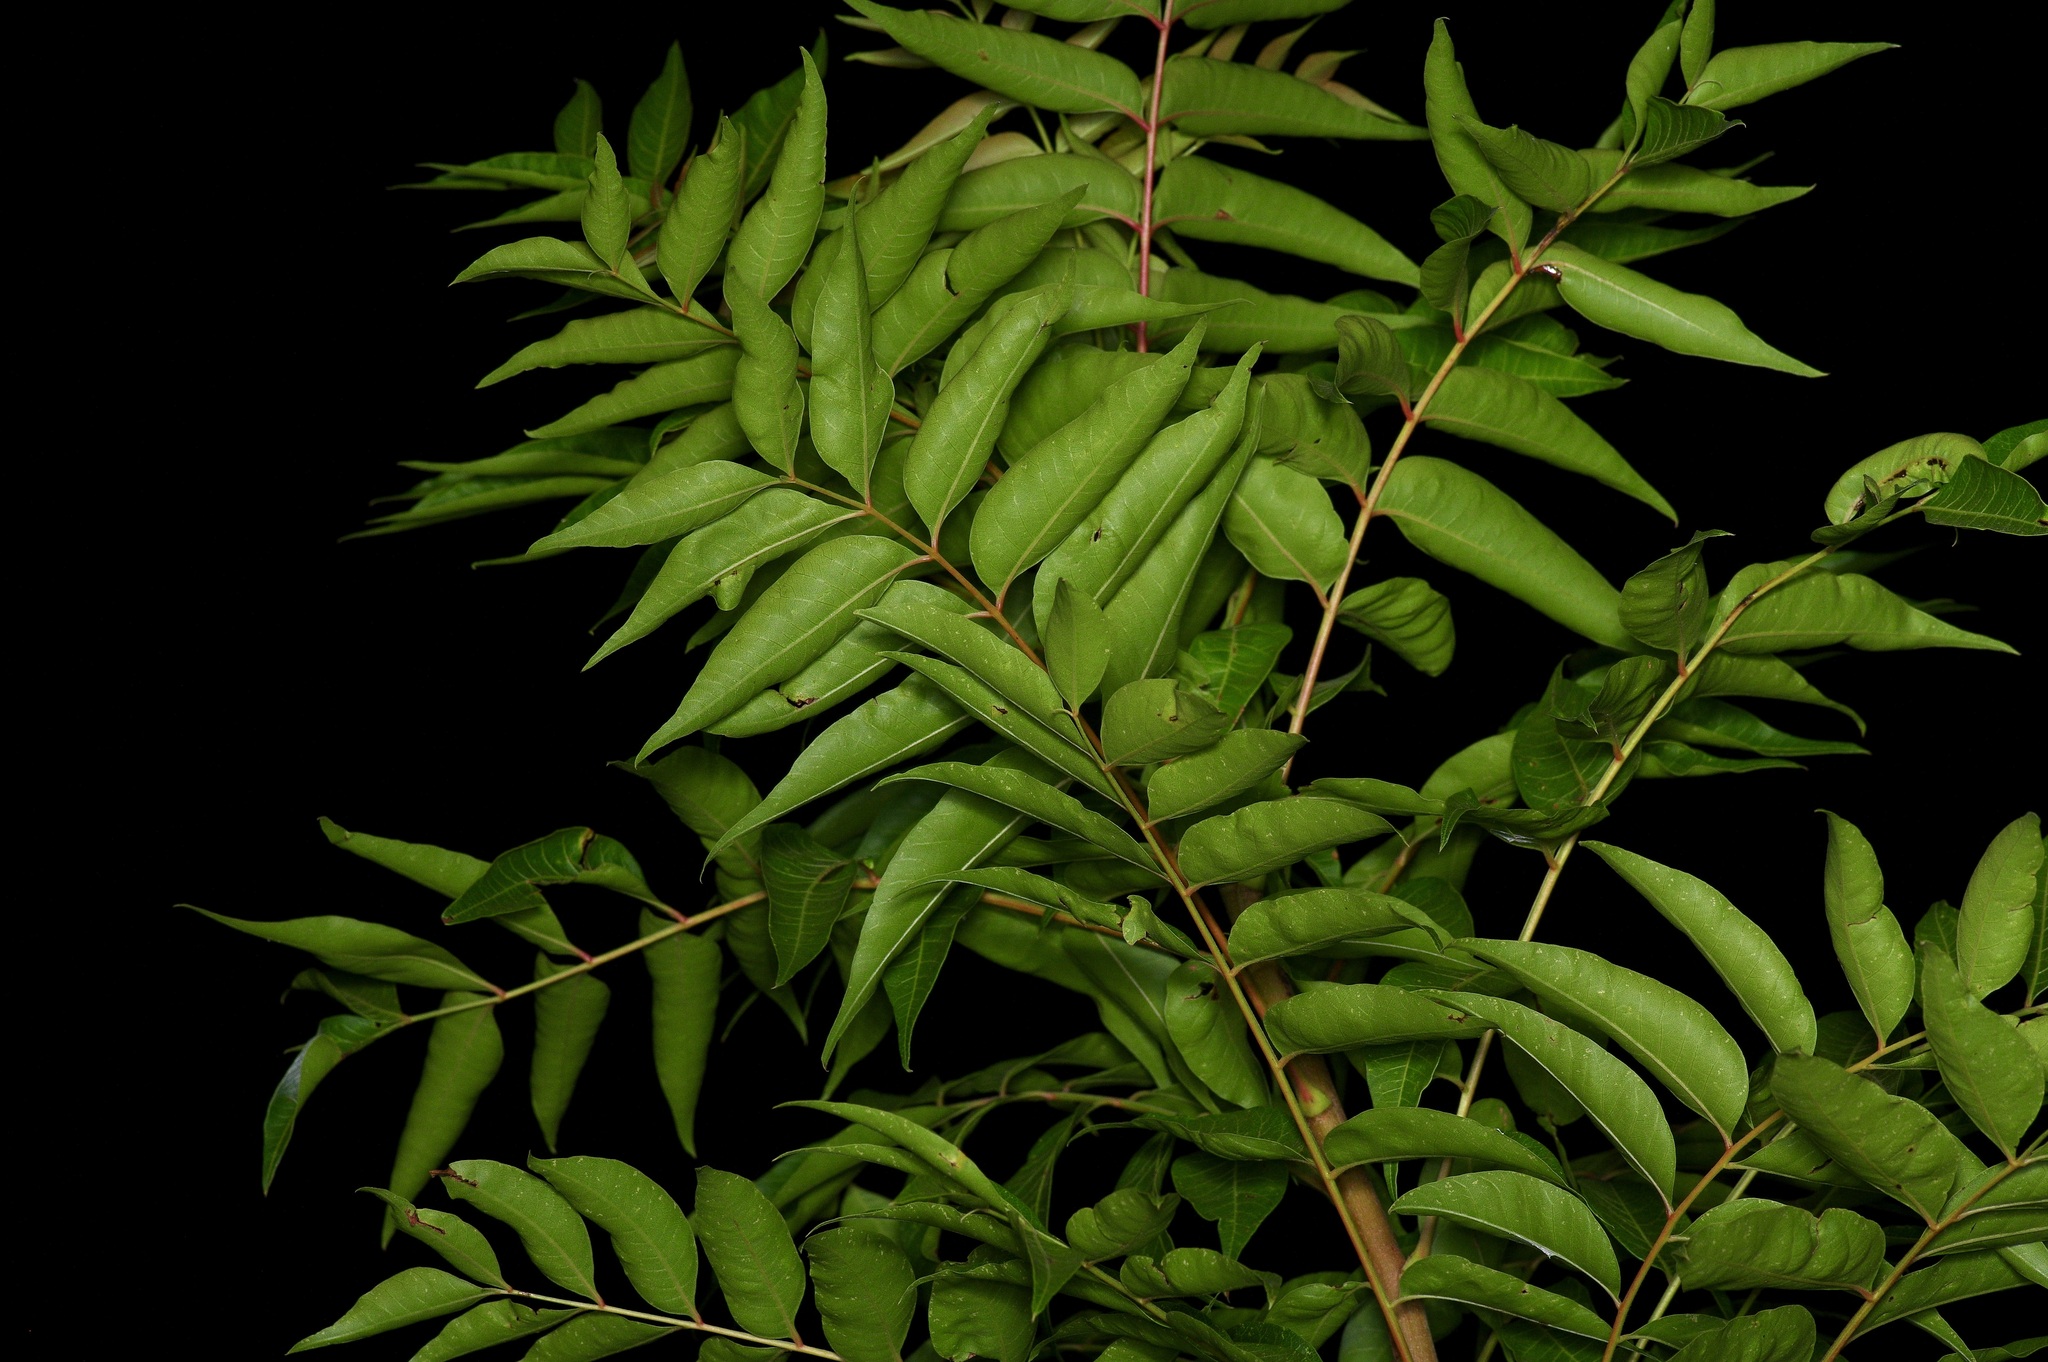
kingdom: Plantae
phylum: Tracheophyta
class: Magnoliopsida
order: Sapindales
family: Anacardiaceae
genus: Pistacia
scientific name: Pistacia chinensis
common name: Chinese pistache
